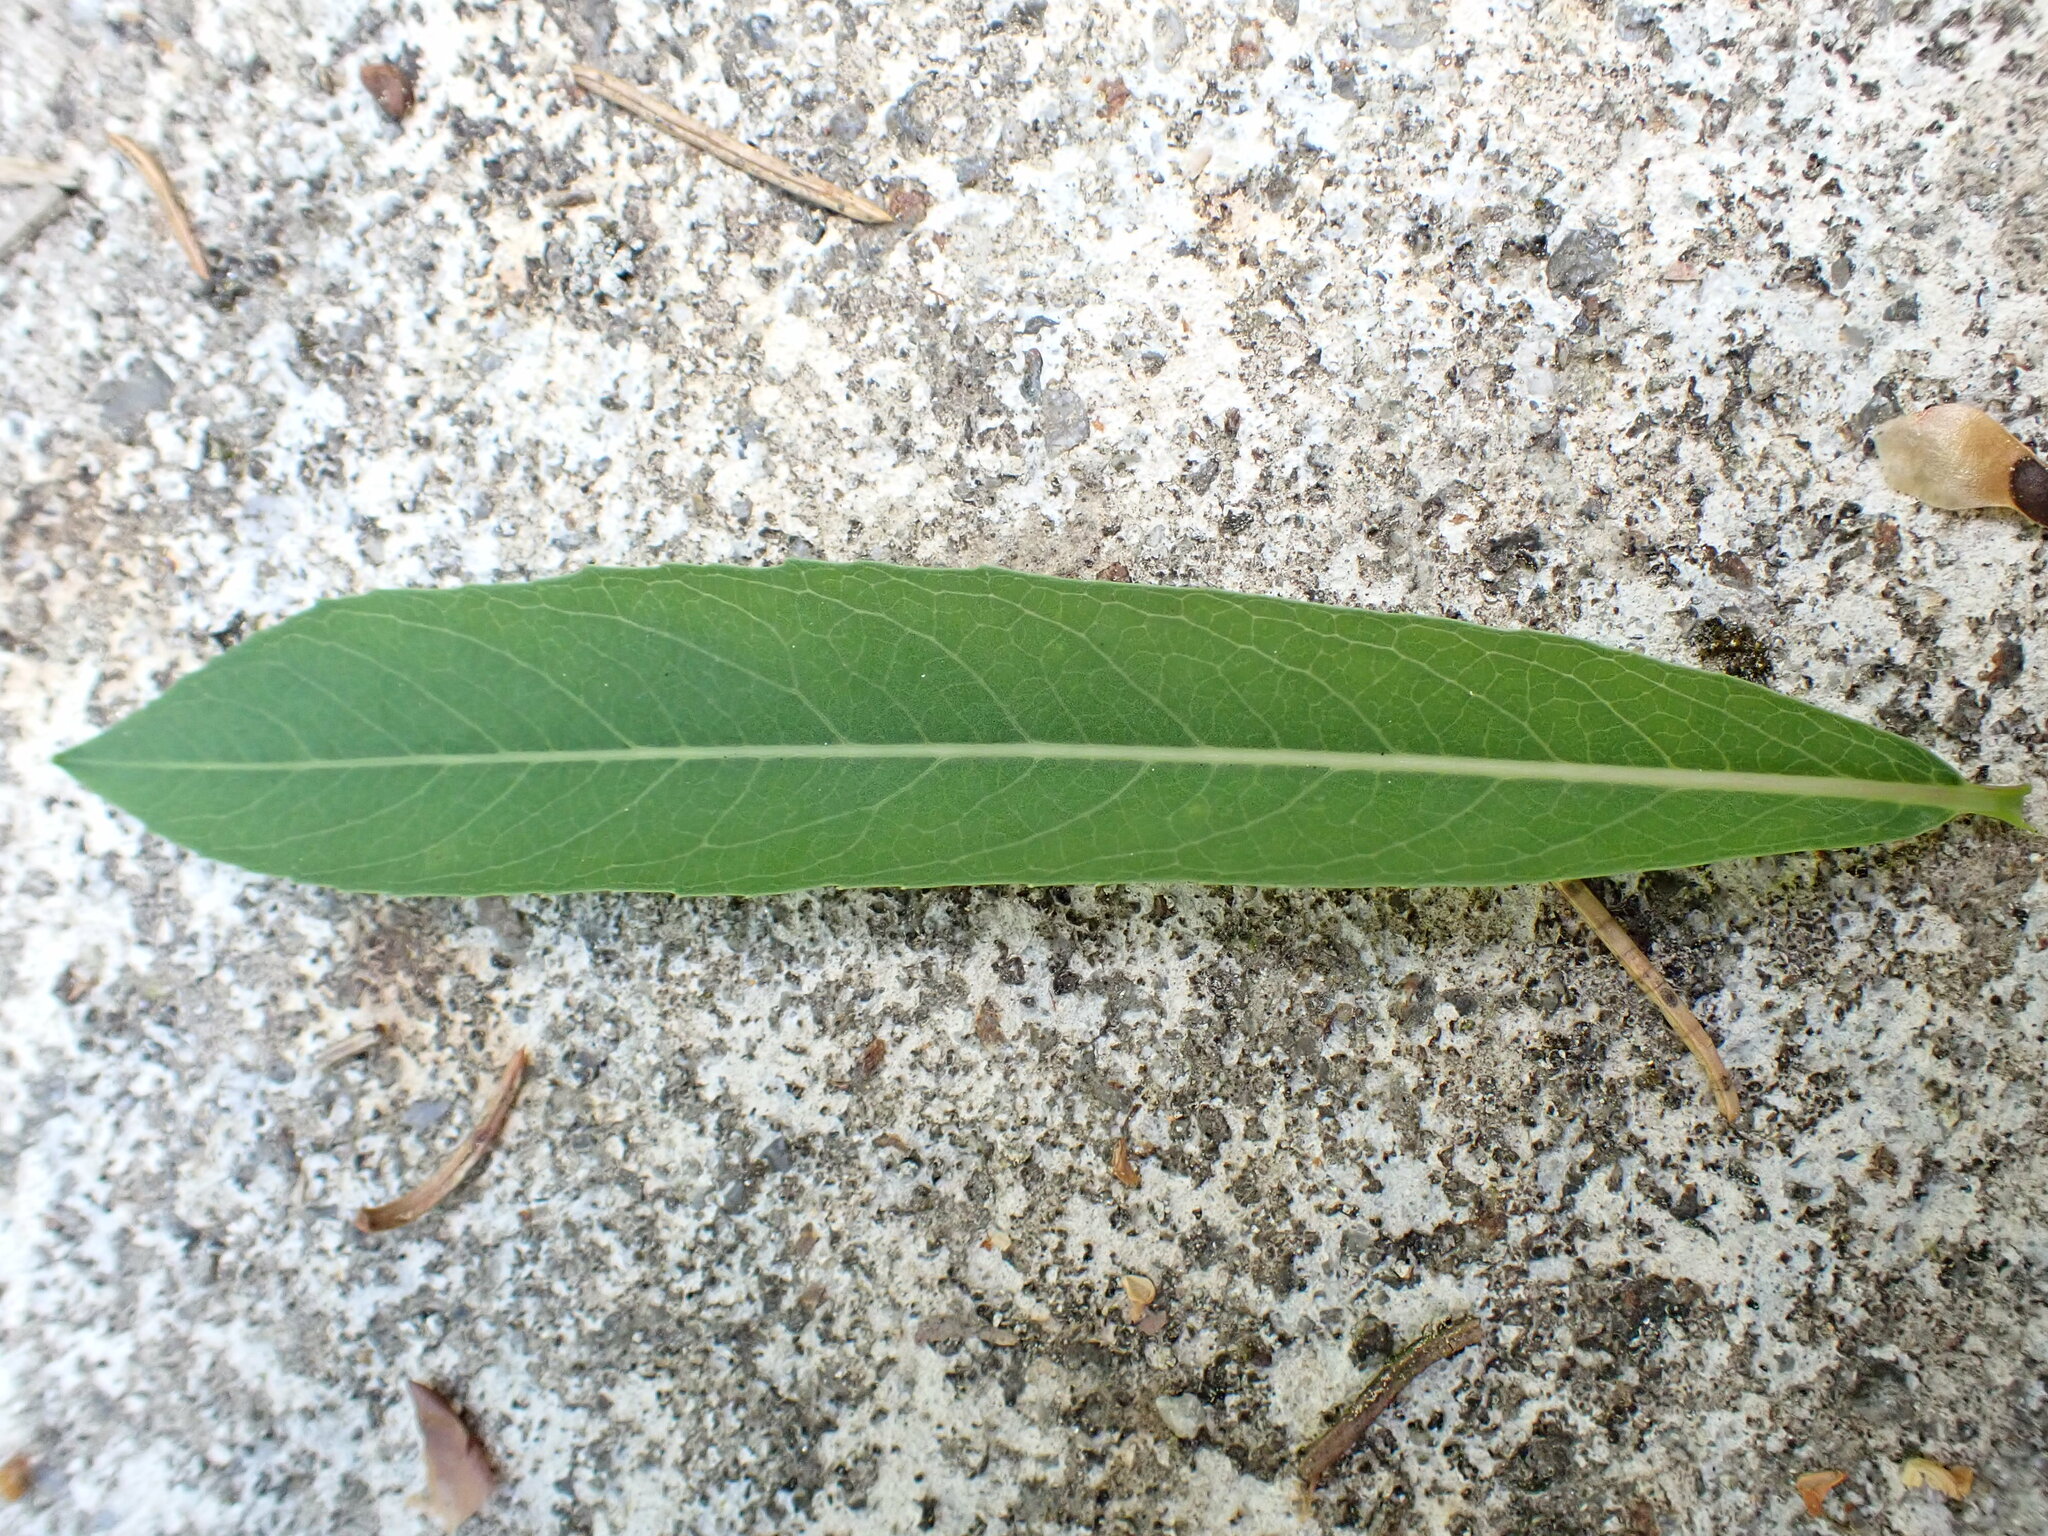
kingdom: Plantae
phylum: Tracheophyta
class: Magnoliopsida
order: Malpighiales
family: Salicaceae
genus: Salix
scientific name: Salix purpurea
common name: Purple willow
